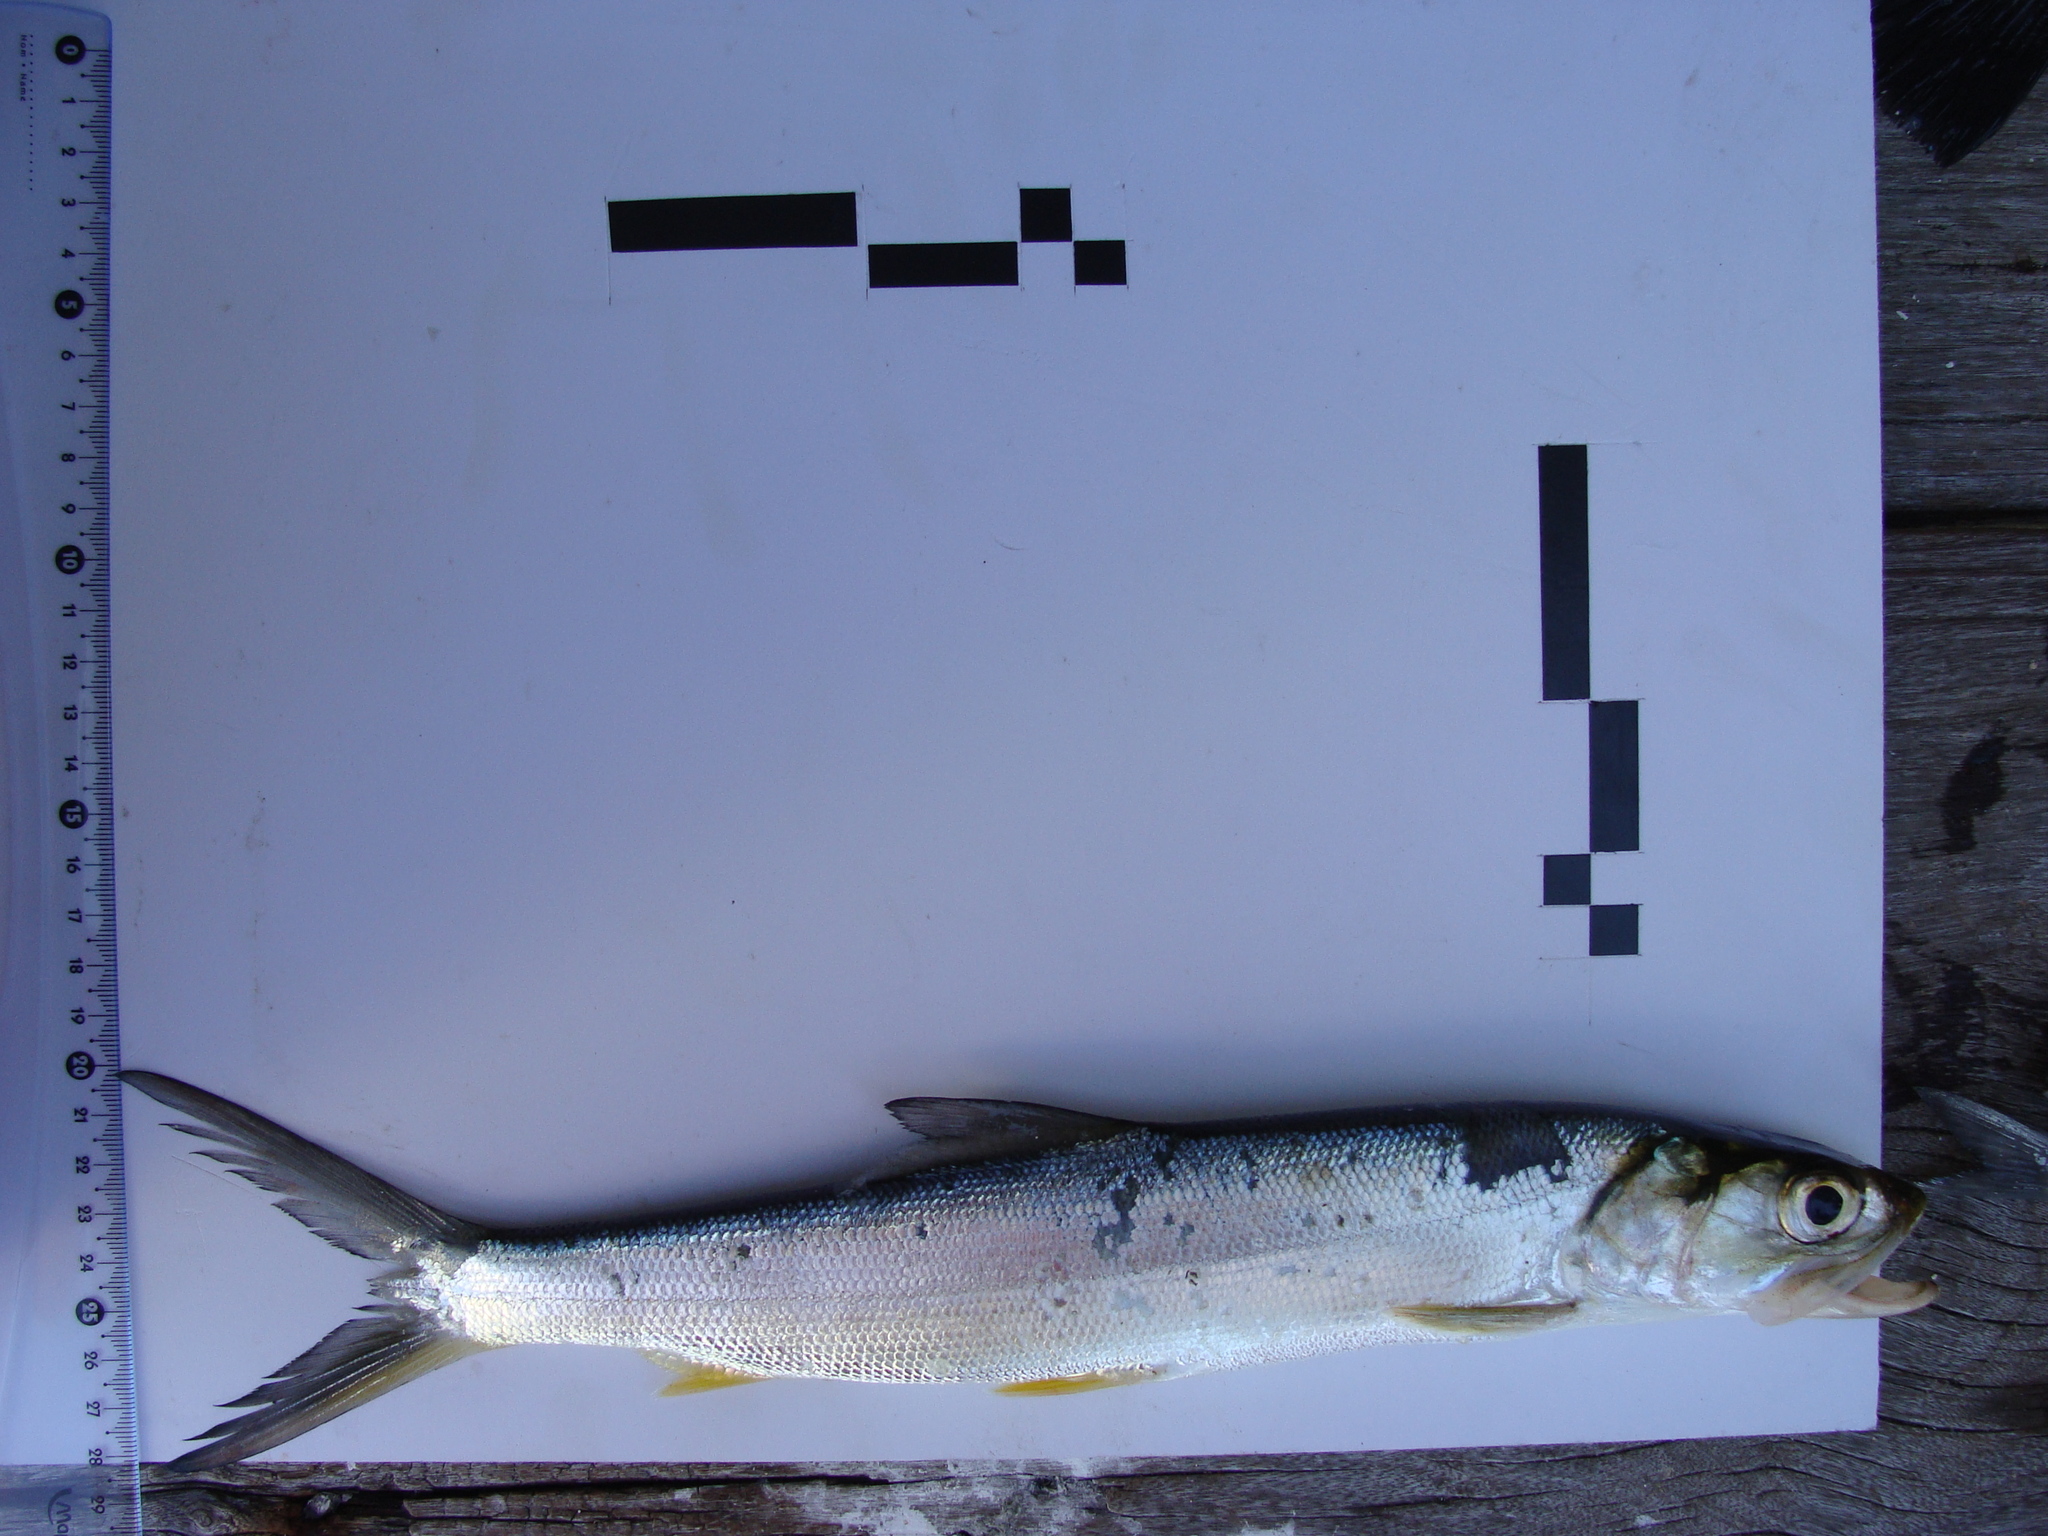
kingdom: Animalia
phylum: Chordata
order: Elopiformes
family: Elopidae
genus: Elops
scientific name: Elops smithi
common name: Malacho
